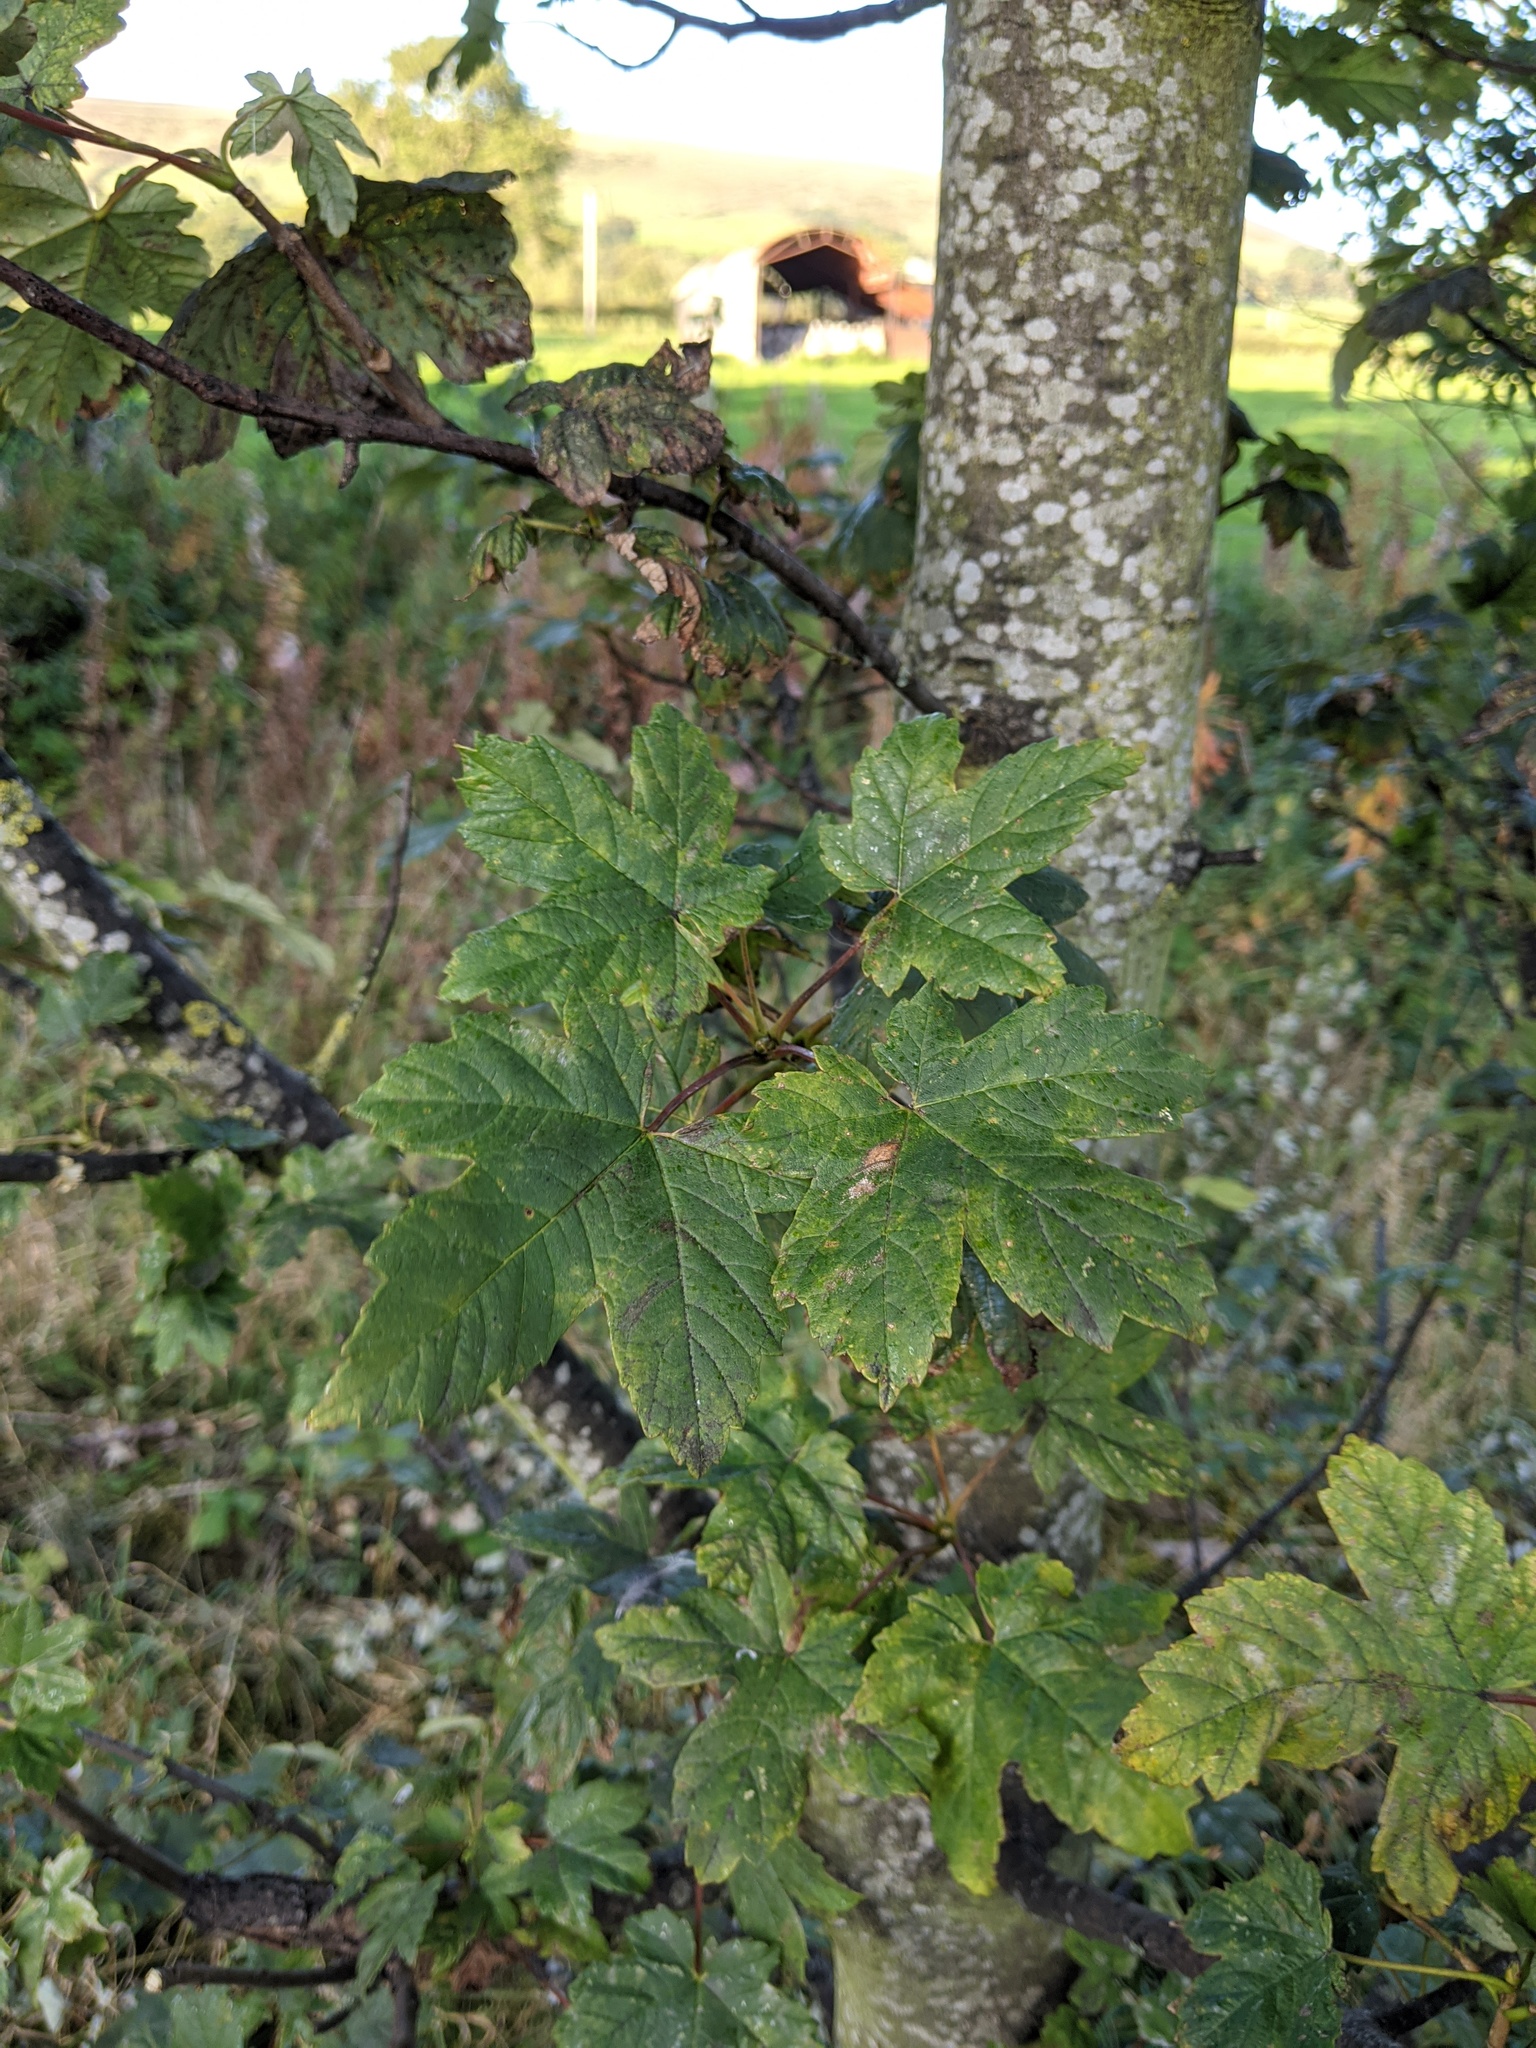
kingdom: Plantae
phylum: Tracheophyta
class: Magnoliopsida
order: Sapindales
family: Sapindaceae
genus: Acer
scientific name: Acer pseudoplatanus
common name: Sycamore
